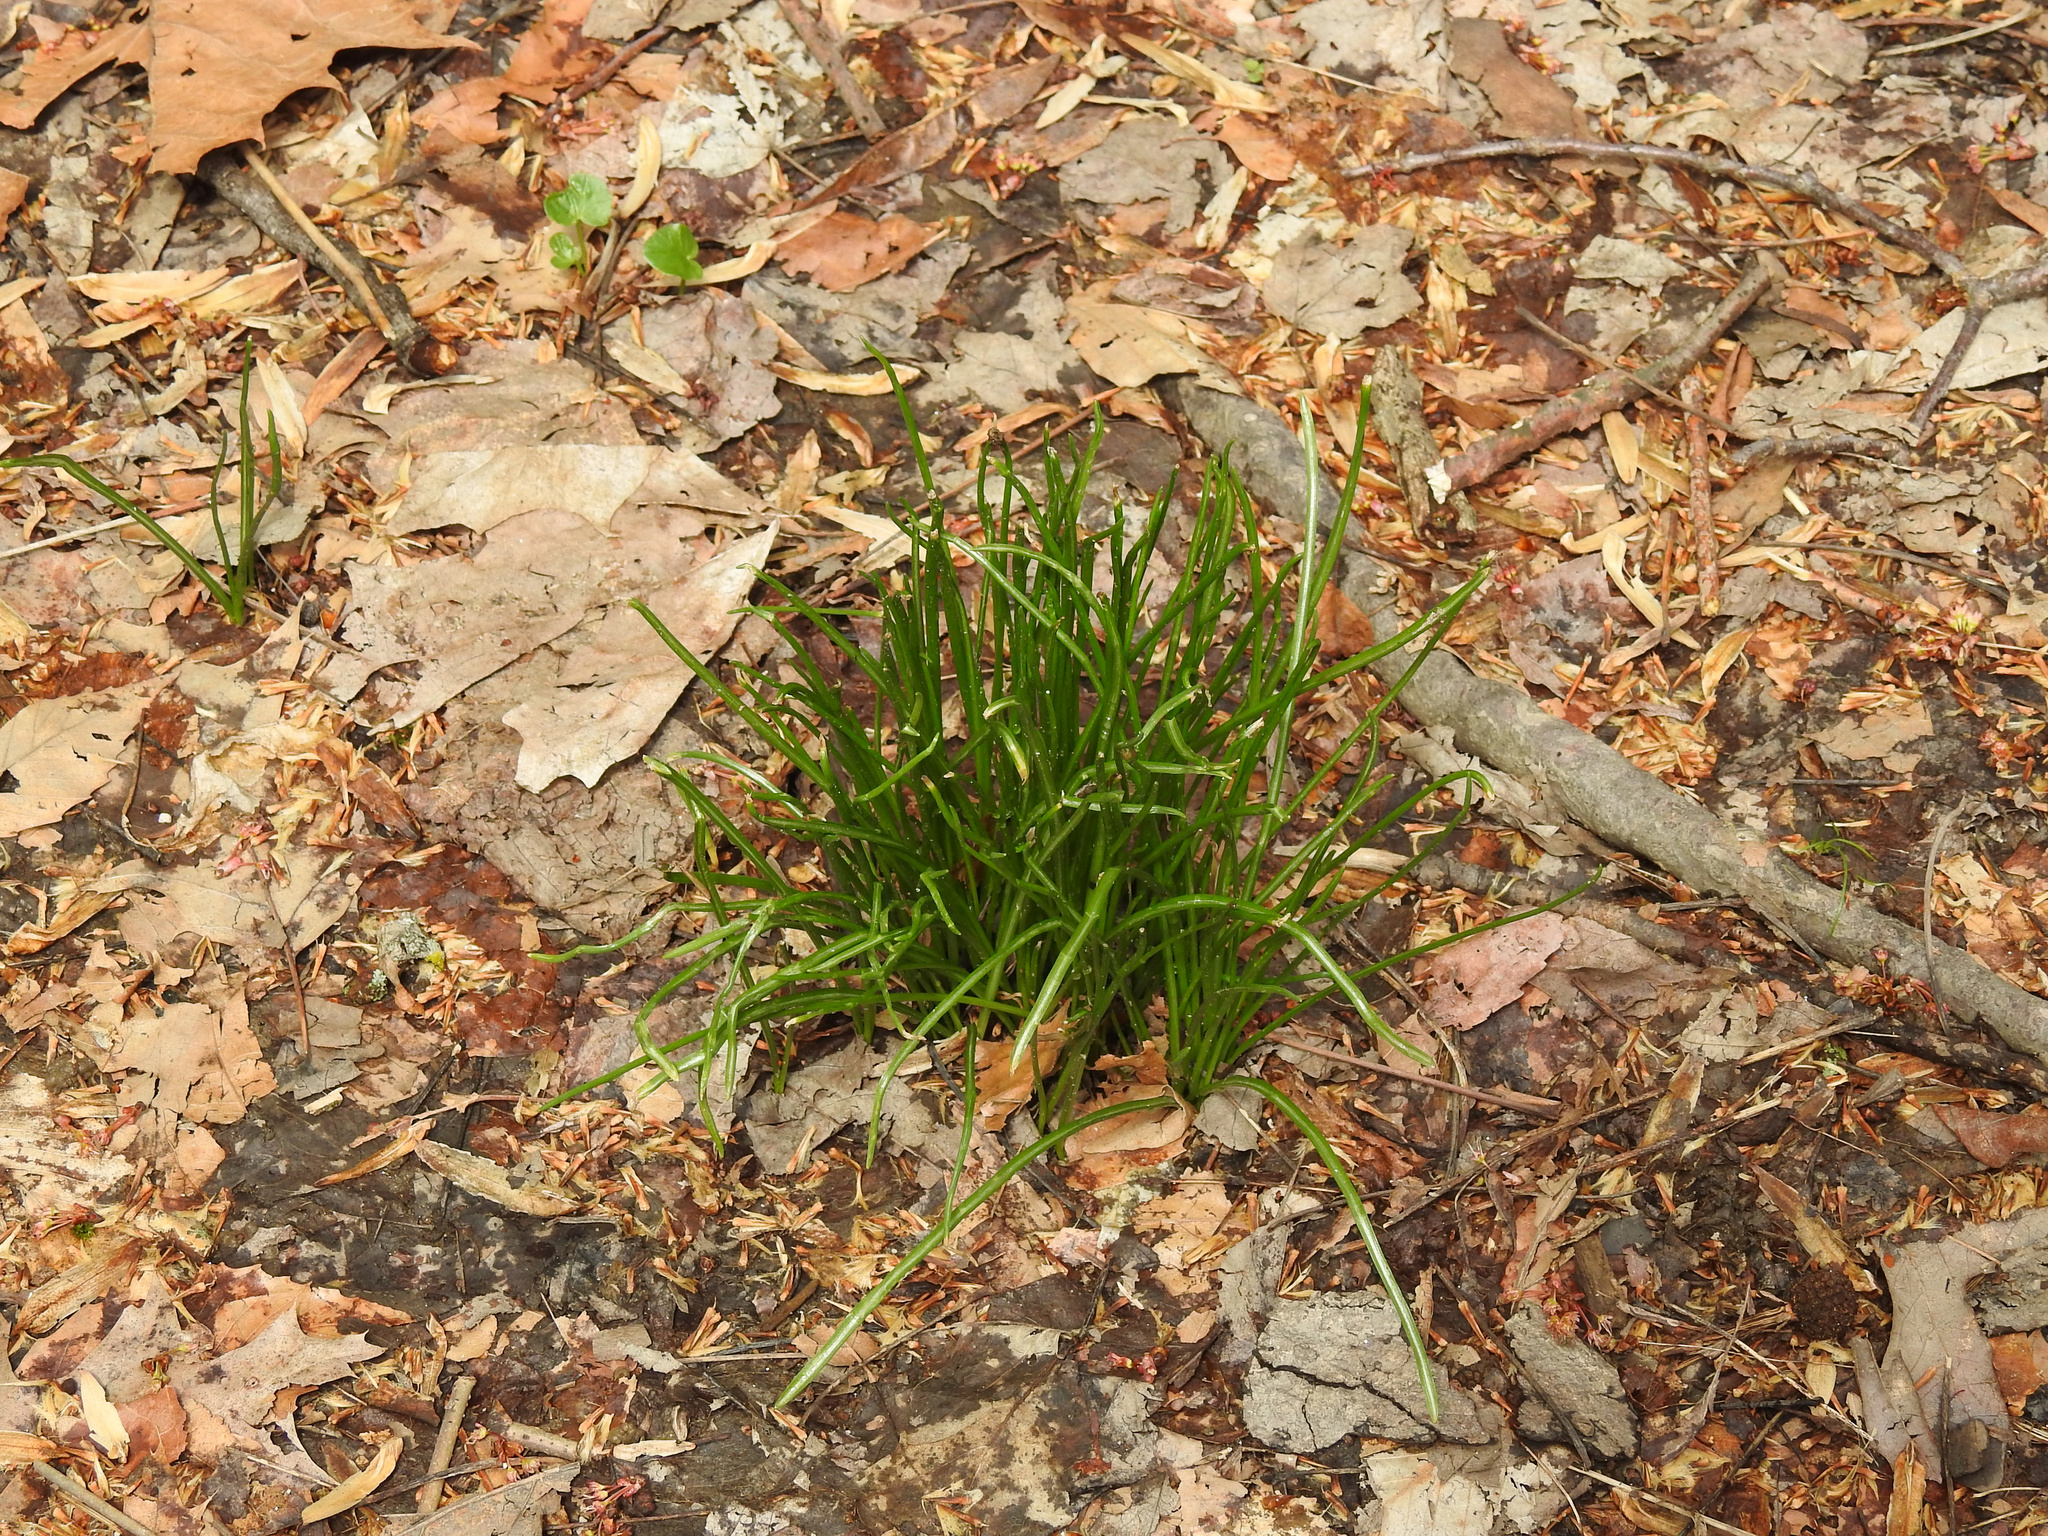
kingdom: Plantae
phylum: Tracheophyta
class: Liliopsida
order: Asparagales
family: Asparagaceae
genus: Ornithogalum
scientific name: Ornithogalum umbellatum
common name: Garden star-of-bethlehem
